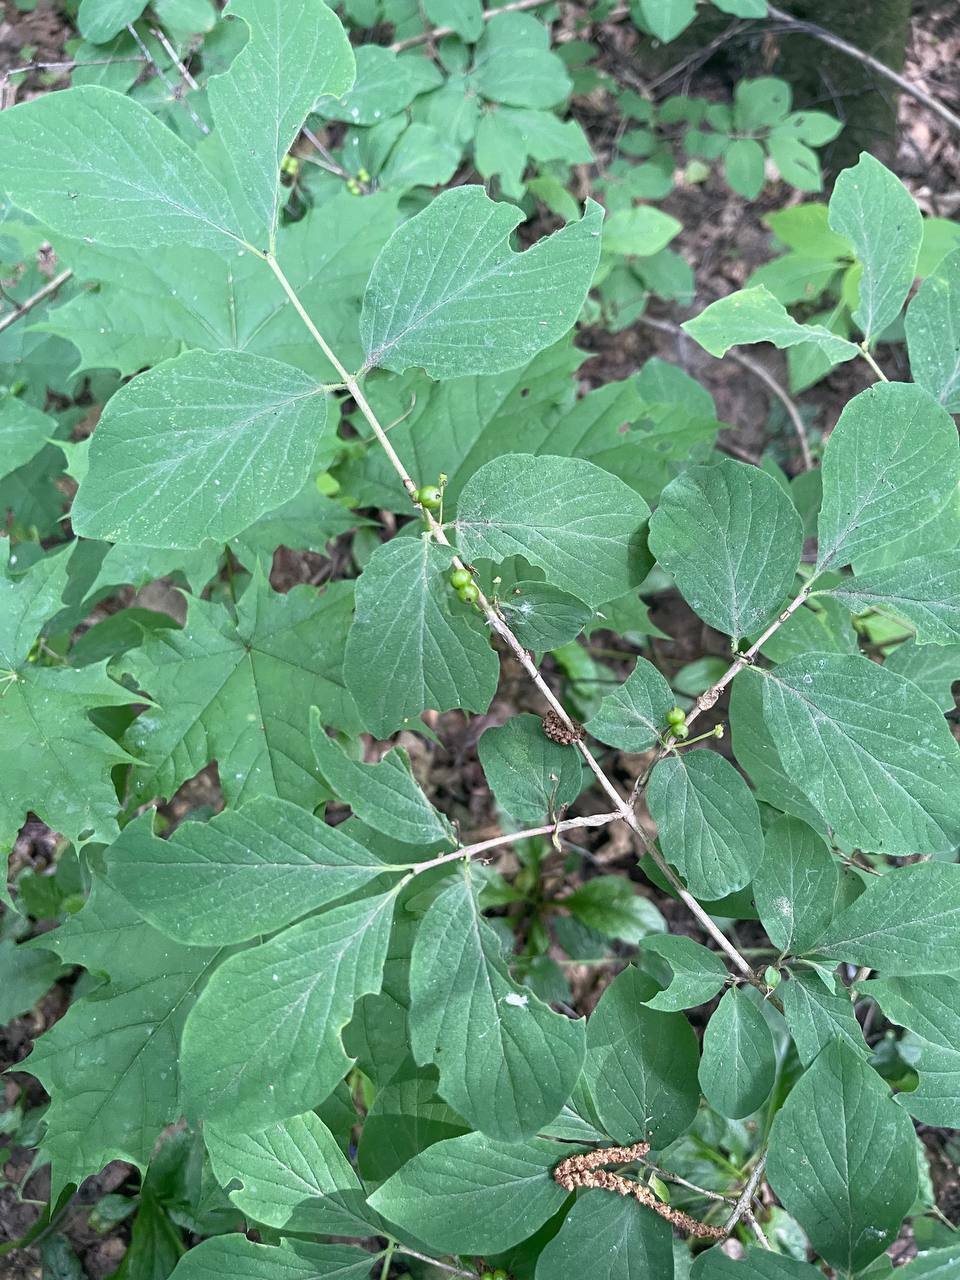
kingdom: Plantae
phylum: Tracheophyta
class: Magnoliopsida
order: Dipsacales
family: Caprifoliaceae
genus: Lonicera
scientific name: Lonicera xylosteum
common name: Fly honeysuckle
